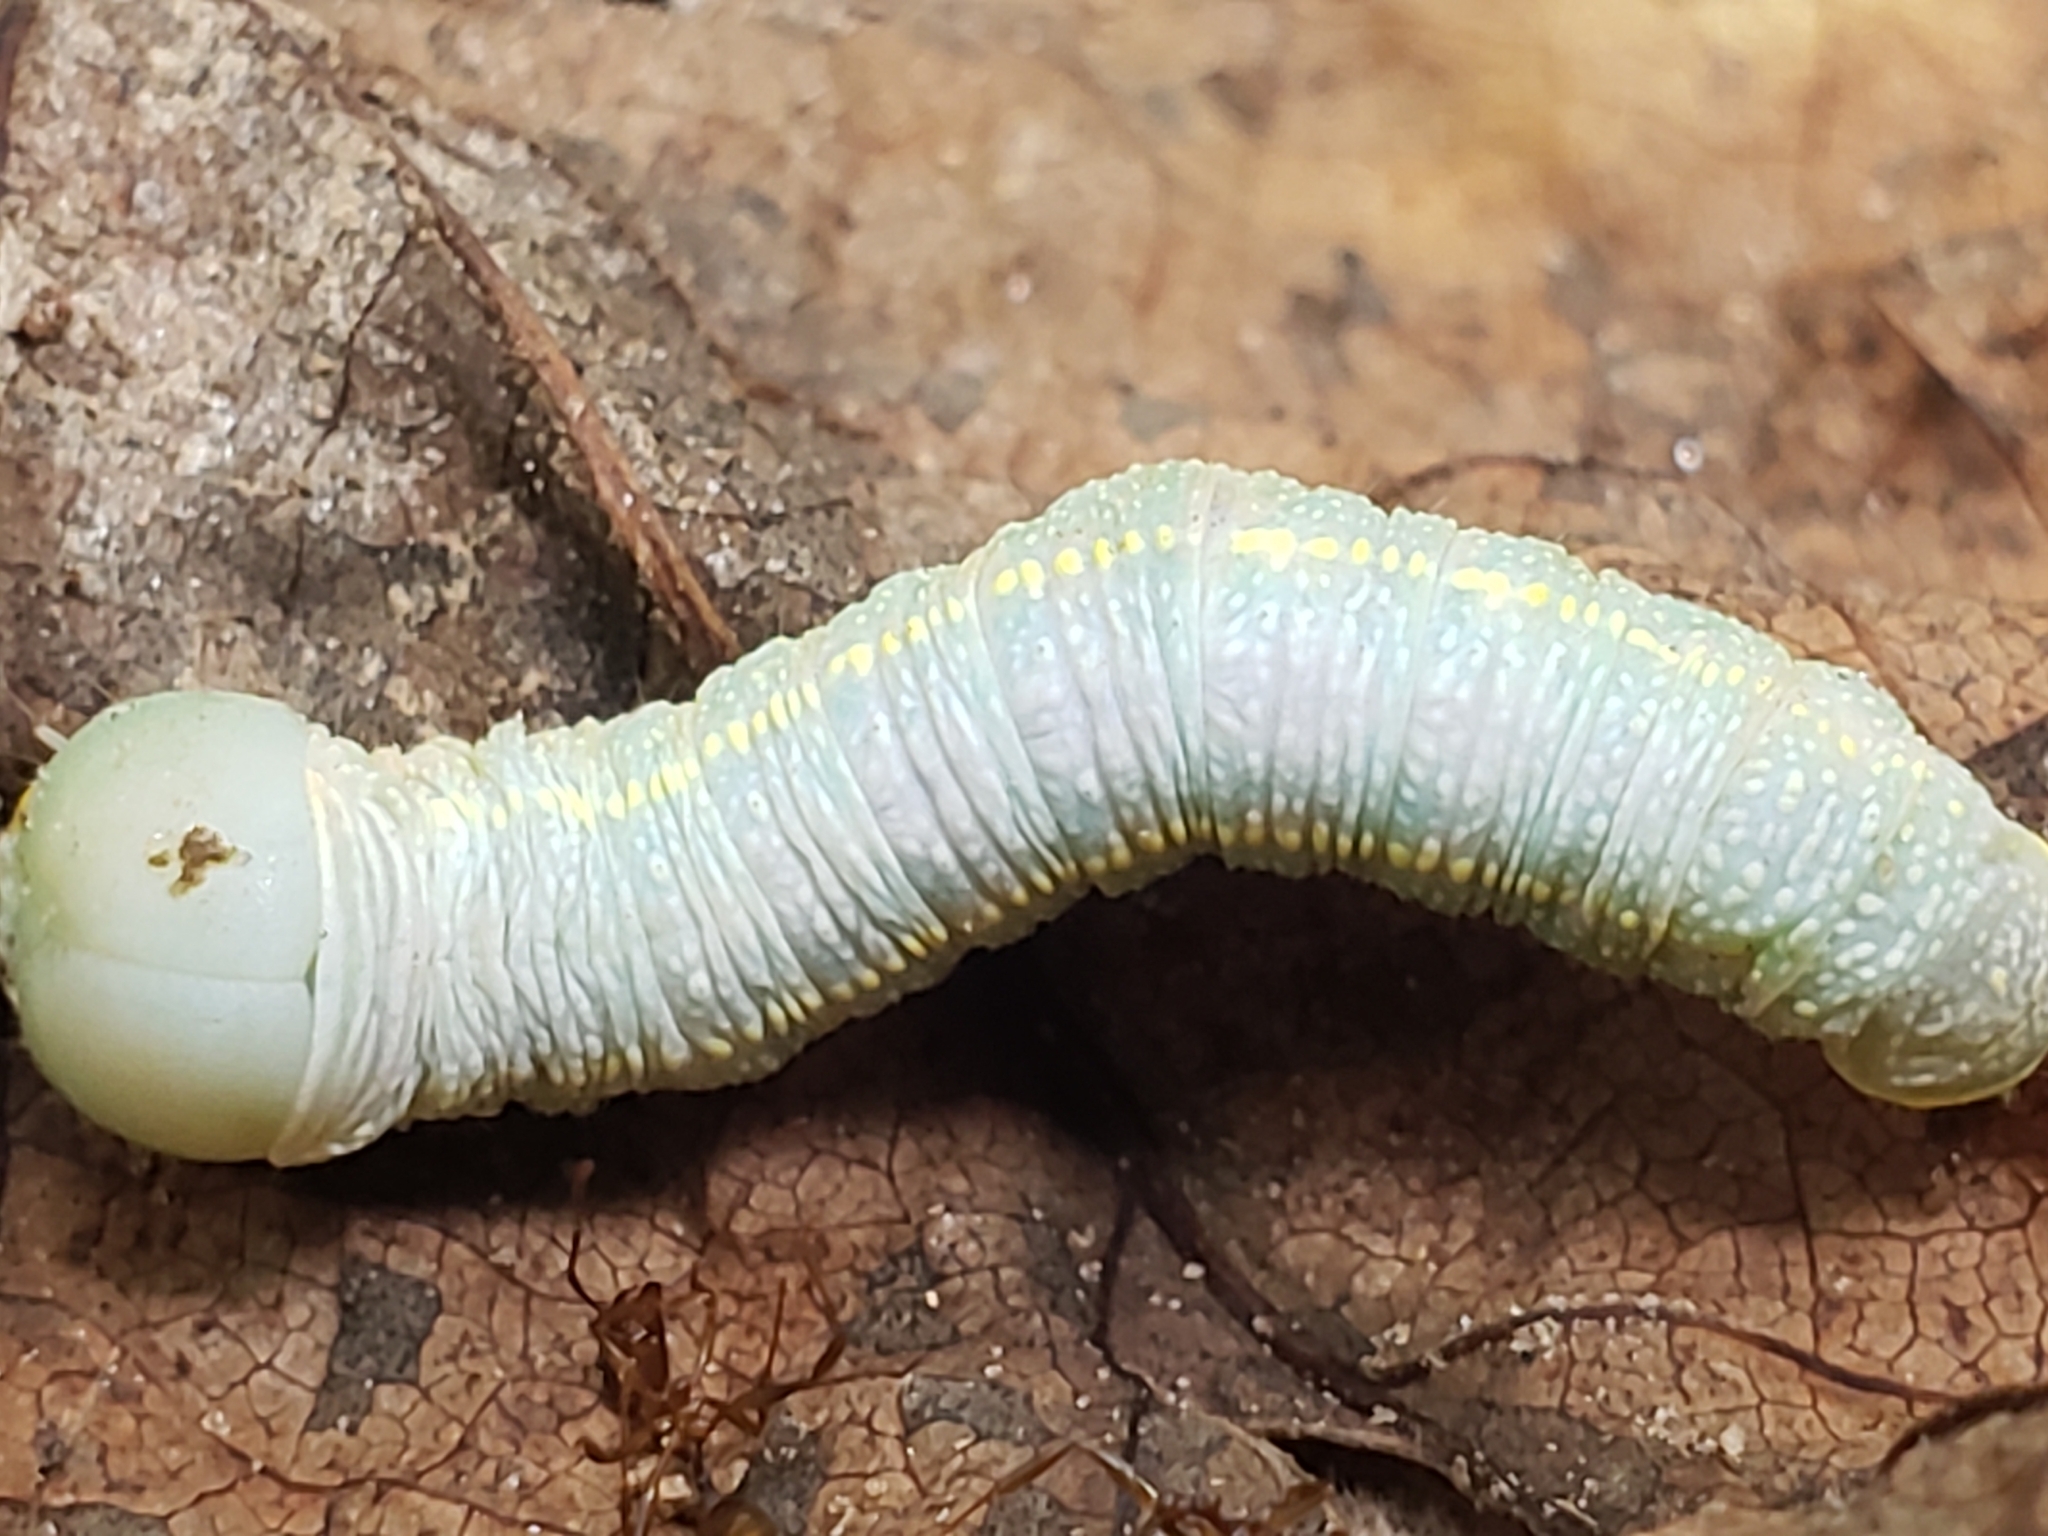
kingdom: Animalia
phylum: Arthropoda
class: Insecta
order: Lepidoptera
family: Notodontidae
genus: Nadata
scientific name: Nadata gibbosa
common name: White-dotted prominent
